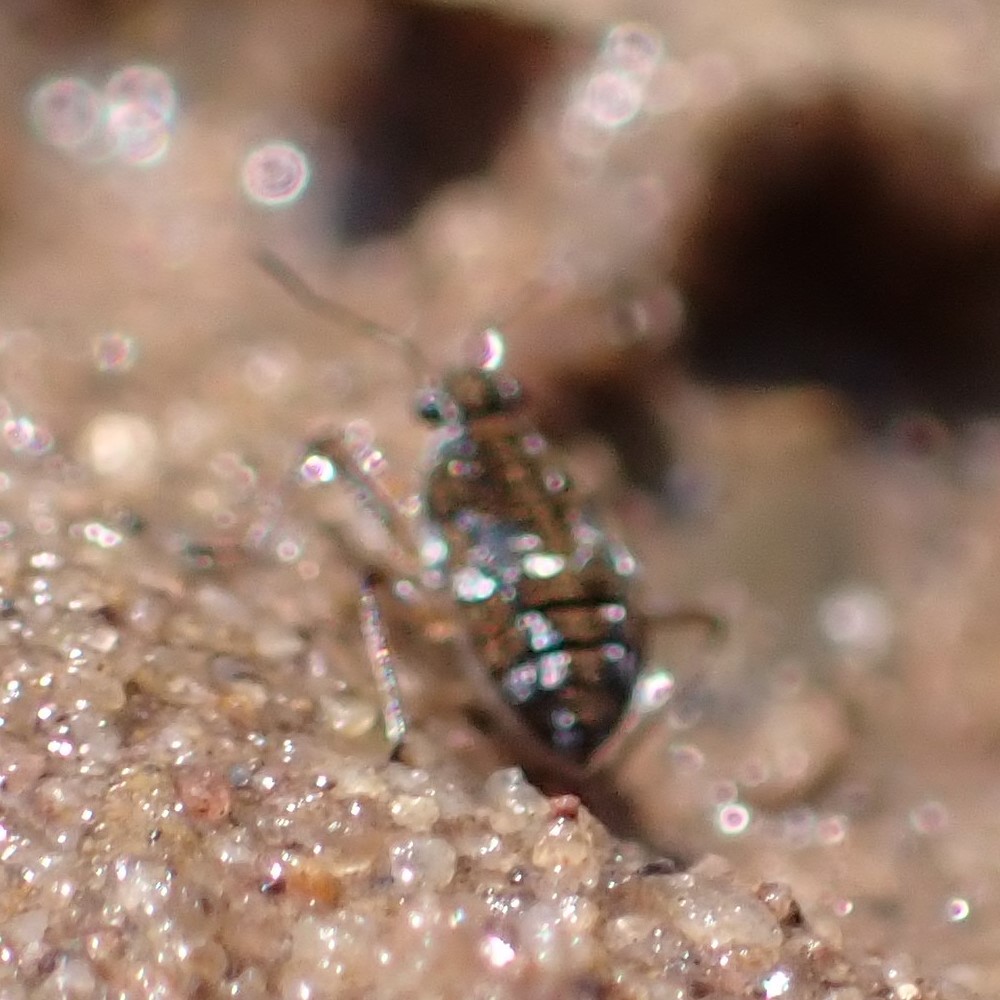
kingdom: Animalia
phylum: Arthropoda
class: Insecta
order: Hemiptera
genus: Kirkaldya
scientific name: Kirkaldya
